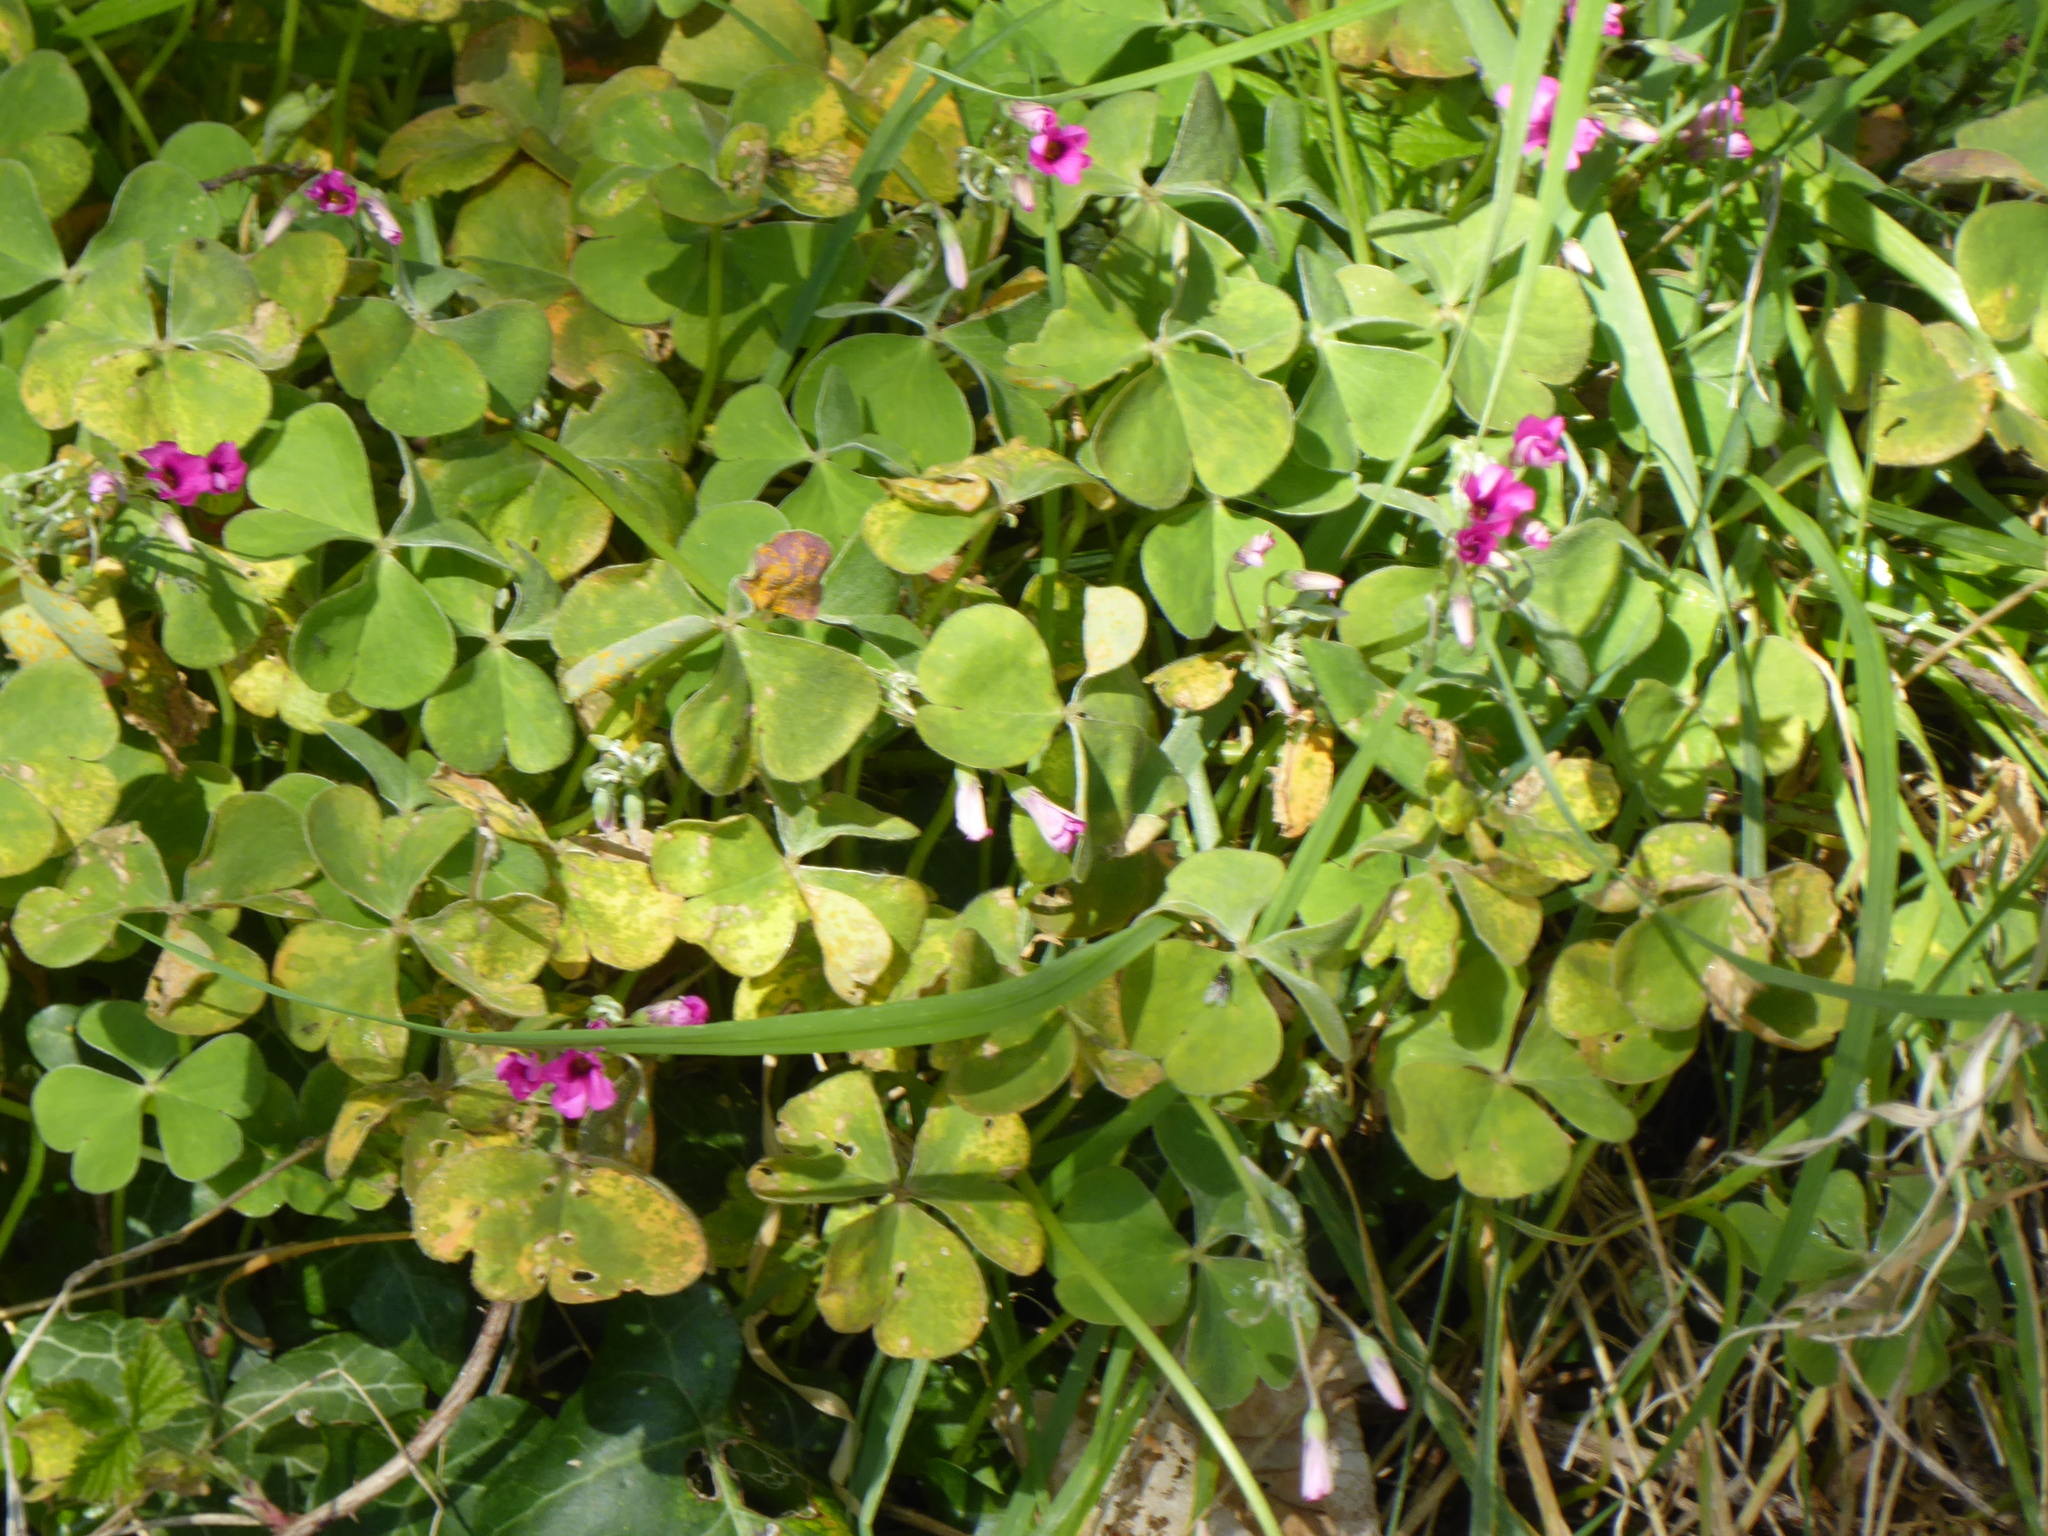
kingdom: Plantae
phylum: Tracheophyta
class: Magnoliopsida
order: Oxalidales
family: Oxalidaceae
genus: Oxalis
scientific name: Oxalis articulata
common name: Pink-sorrel
